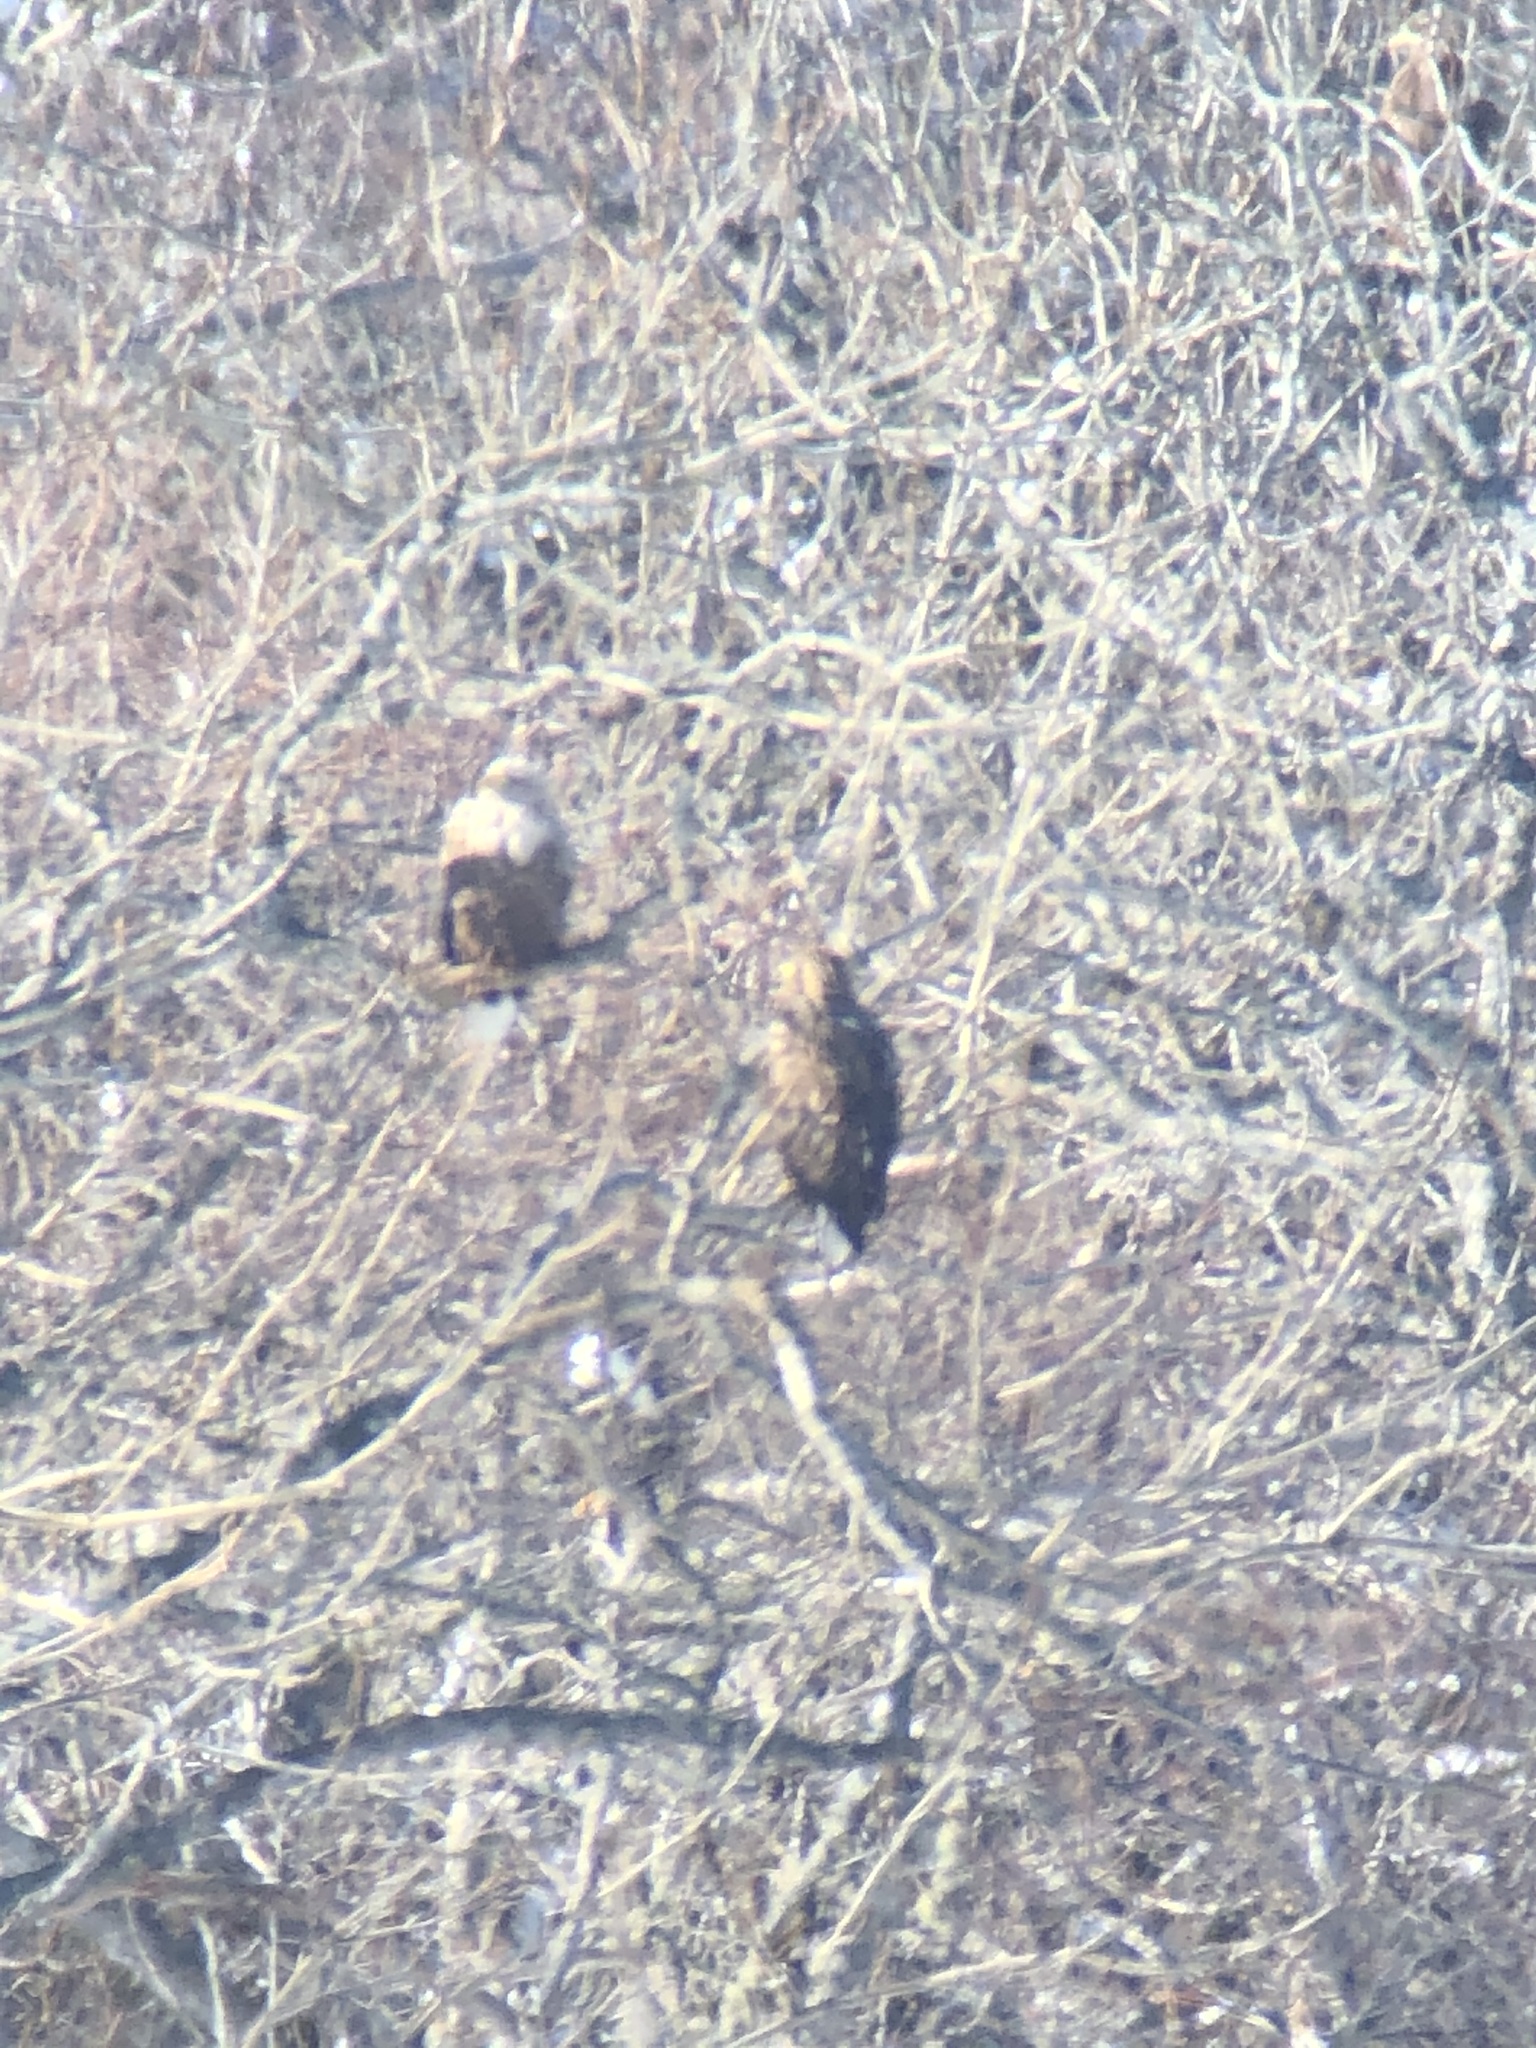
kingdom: Animalia
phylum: Chordata
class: Aves
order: Accipitriformes
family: Accipitridae
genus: Haliaeetus
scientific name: Haliaeetus albicilla
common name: White-tailed eagle
